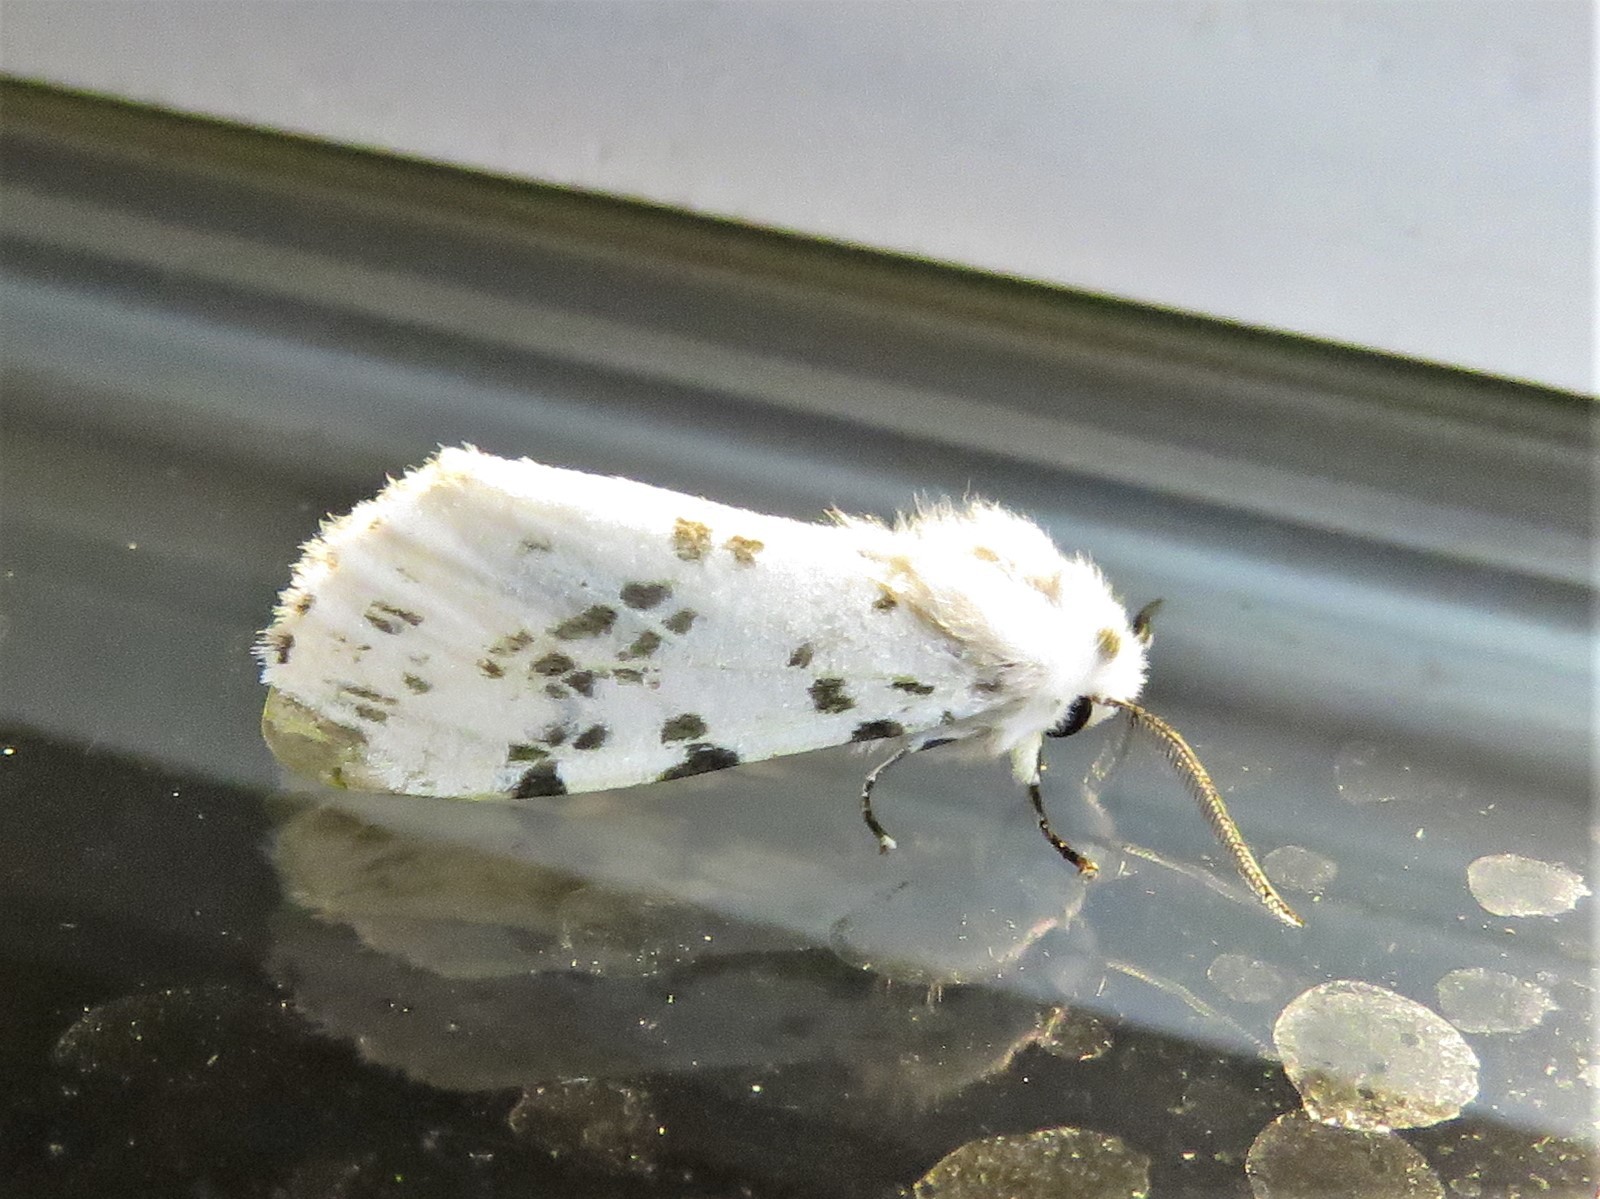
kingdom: Animalia
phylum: Arthropoda
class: Insecta
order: Lepidoptera
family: Erebidae
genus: Hyphantria
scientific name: Hyphantria cunea
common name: American white moth
